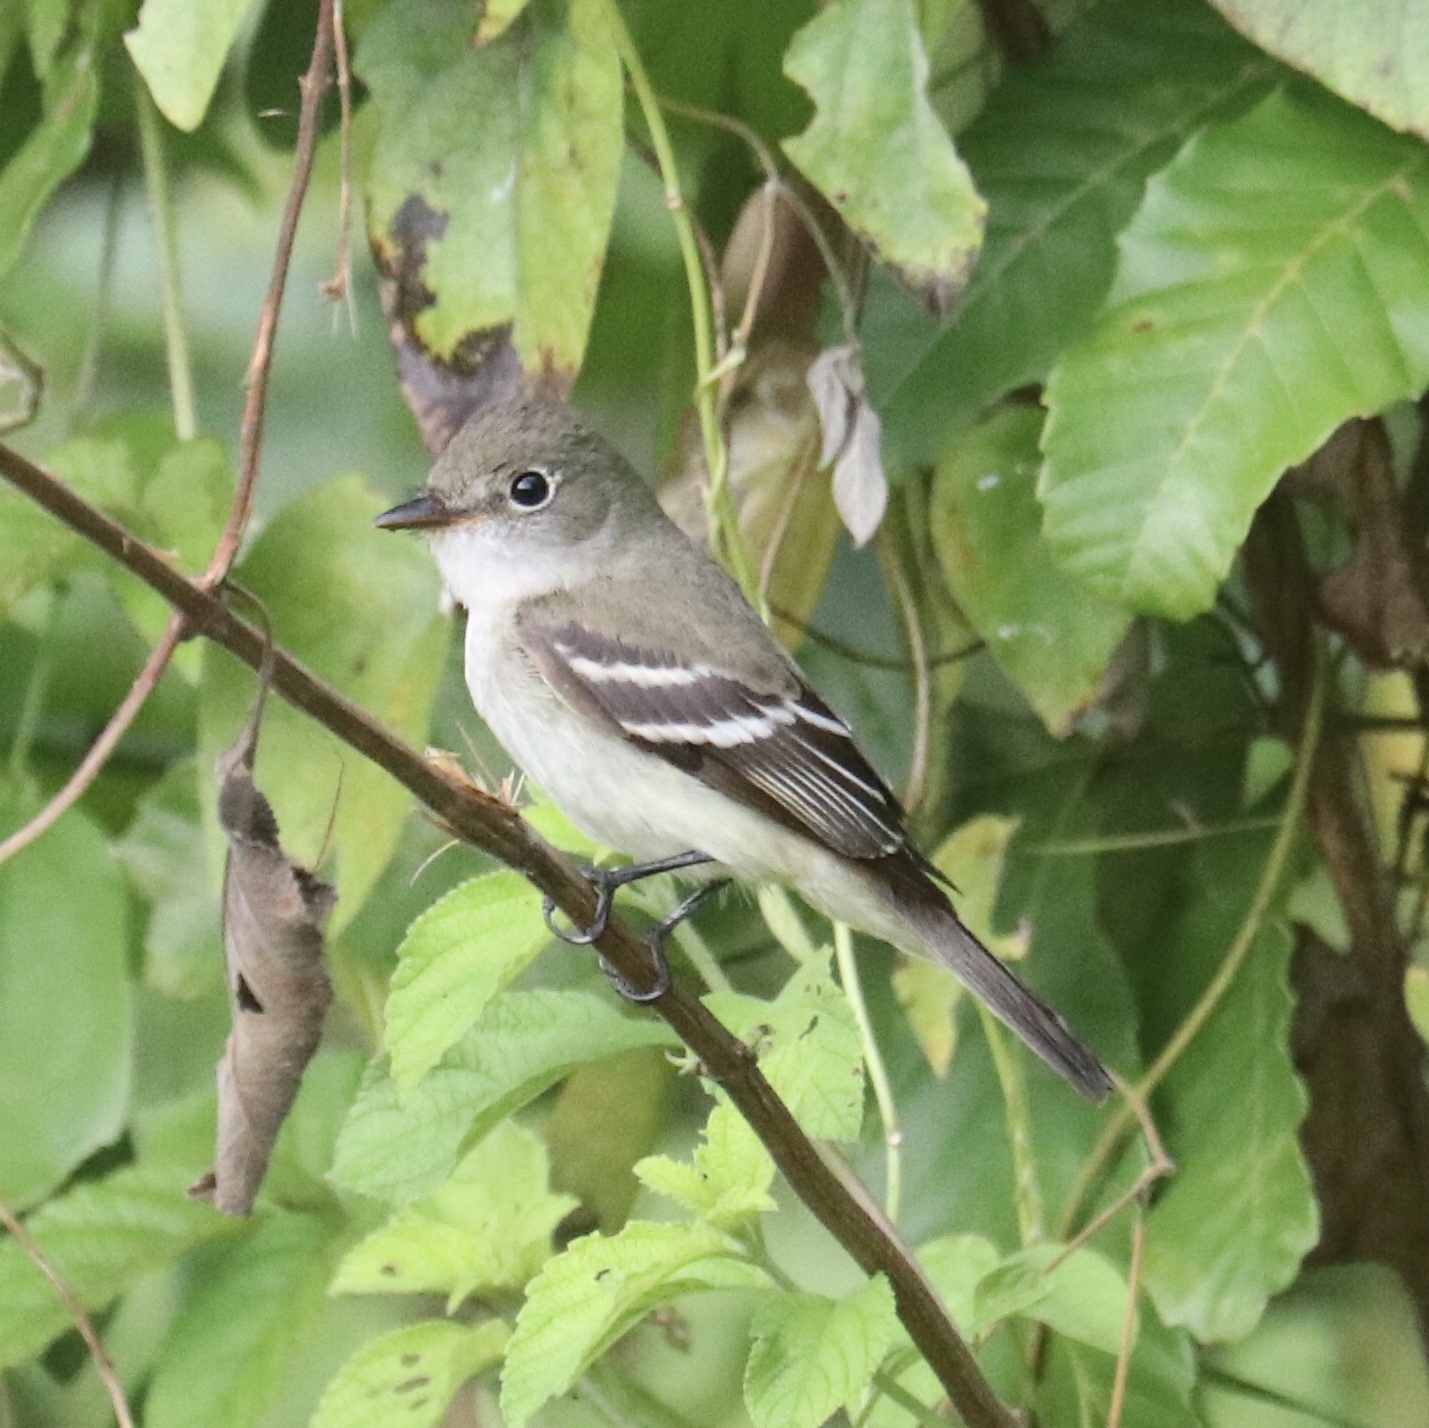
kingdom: Animalia
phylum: Chordata
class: Aves
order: Passeriformes
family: Tyrannidae
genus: Empidonax
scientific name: Empidonax alnorum
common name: Alder flycatcher
